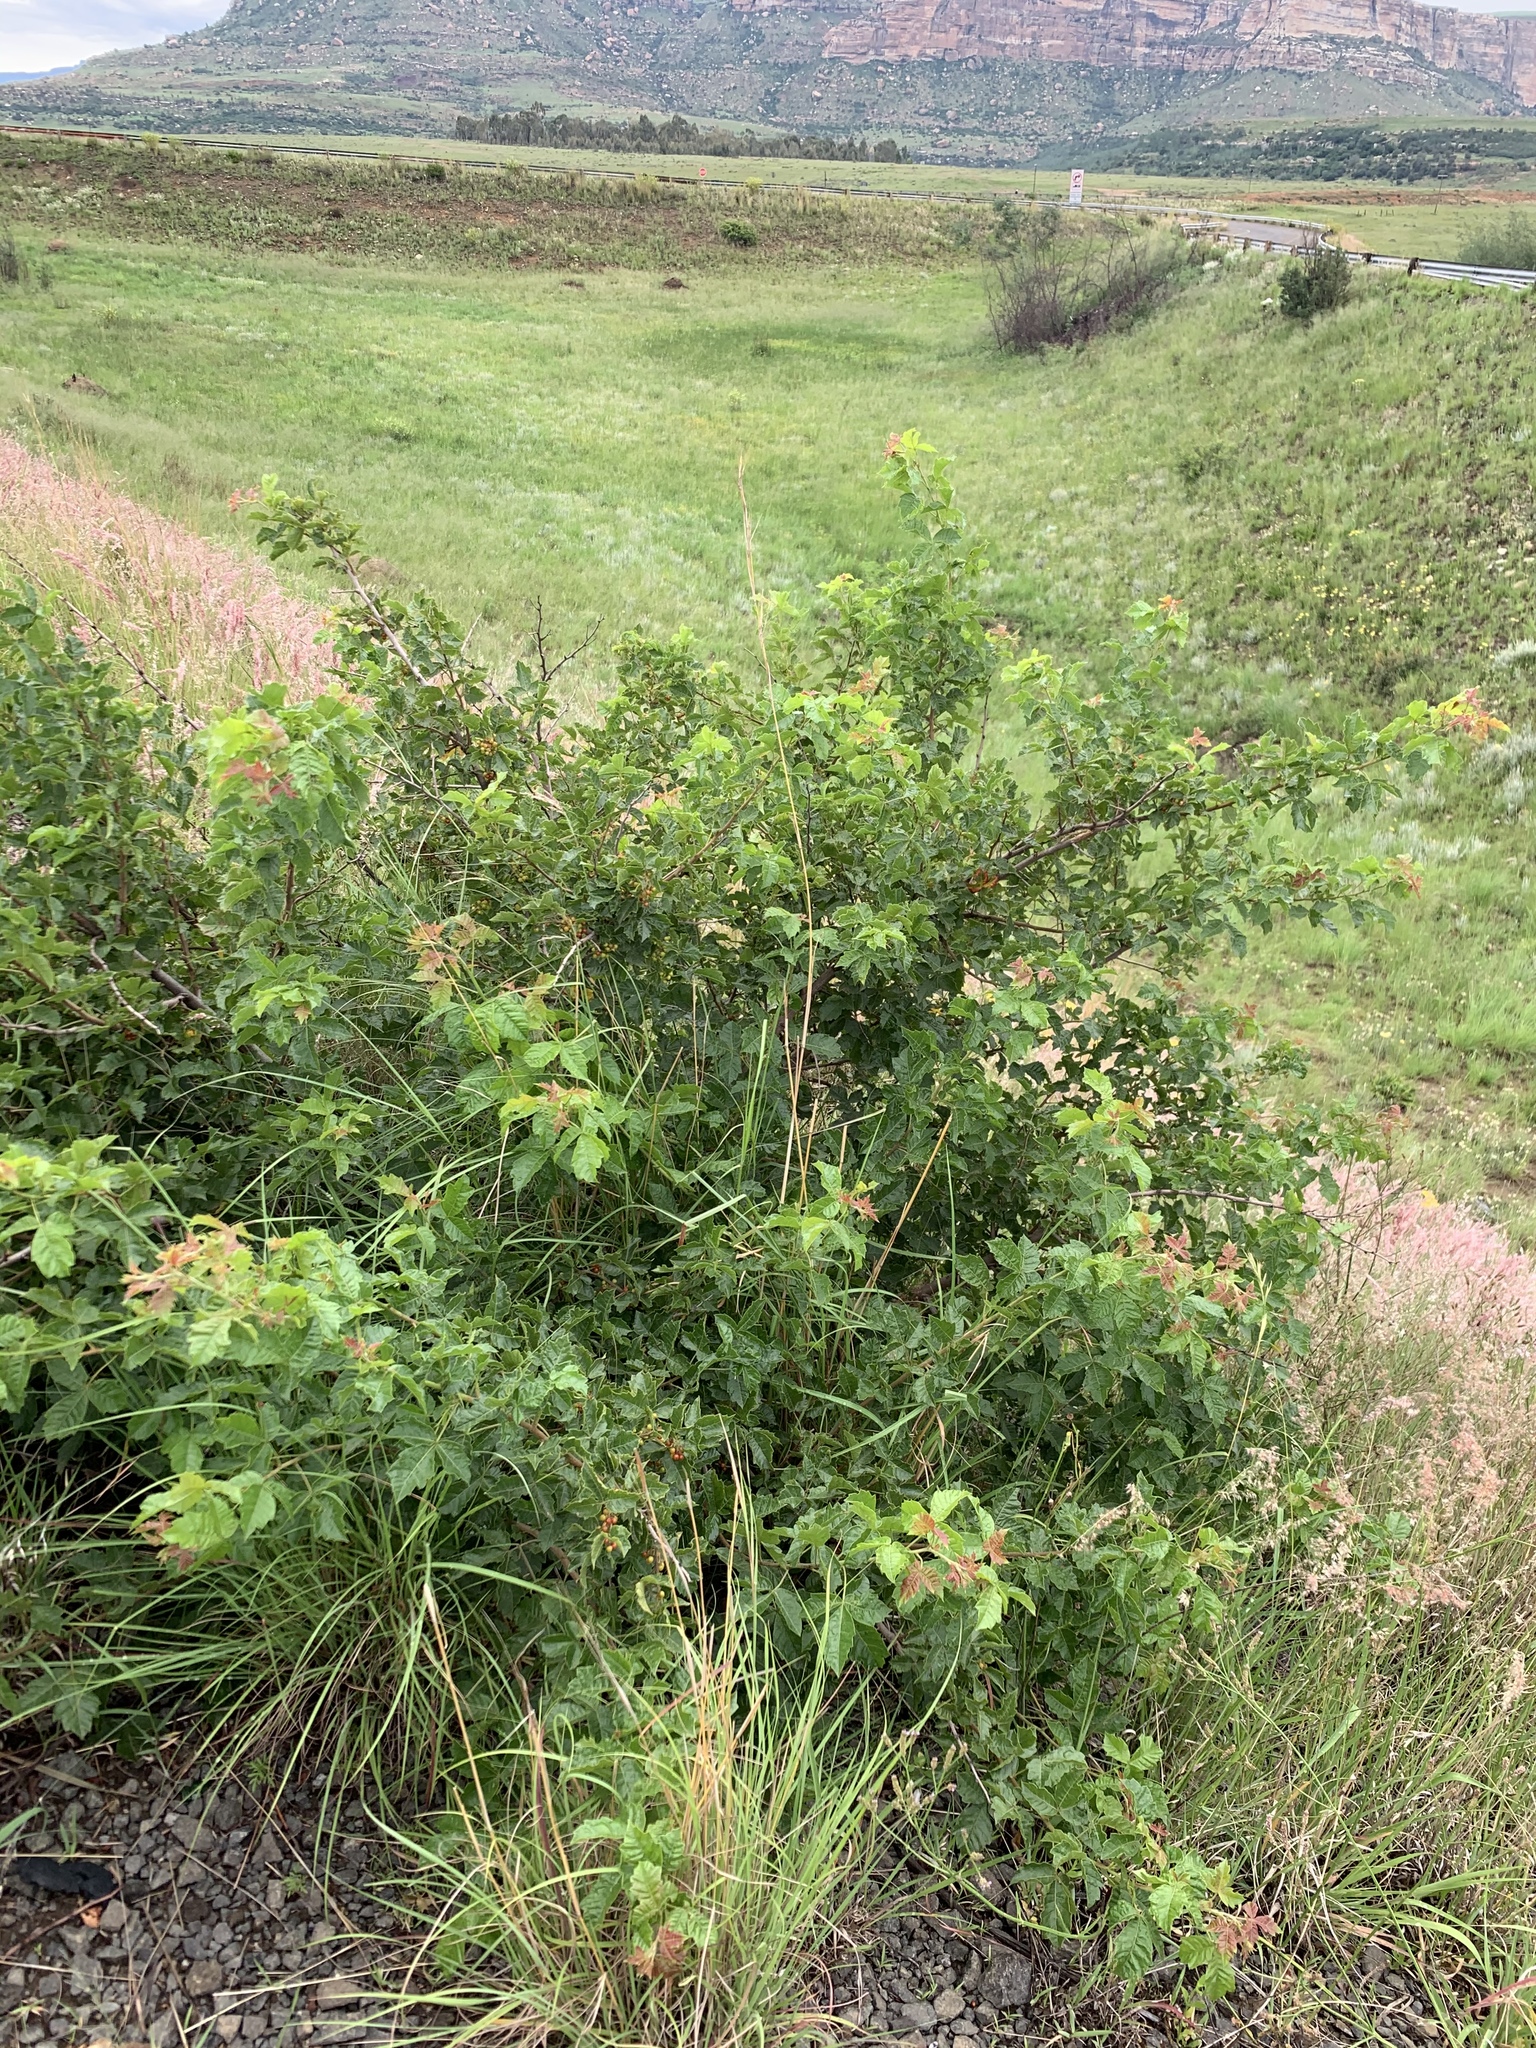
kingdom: Plantae
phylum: Tracheophyta
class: Magnoliopsida
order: Sapindales
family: Anacardiaceae
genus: Searsia
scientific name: Searsia dentata
